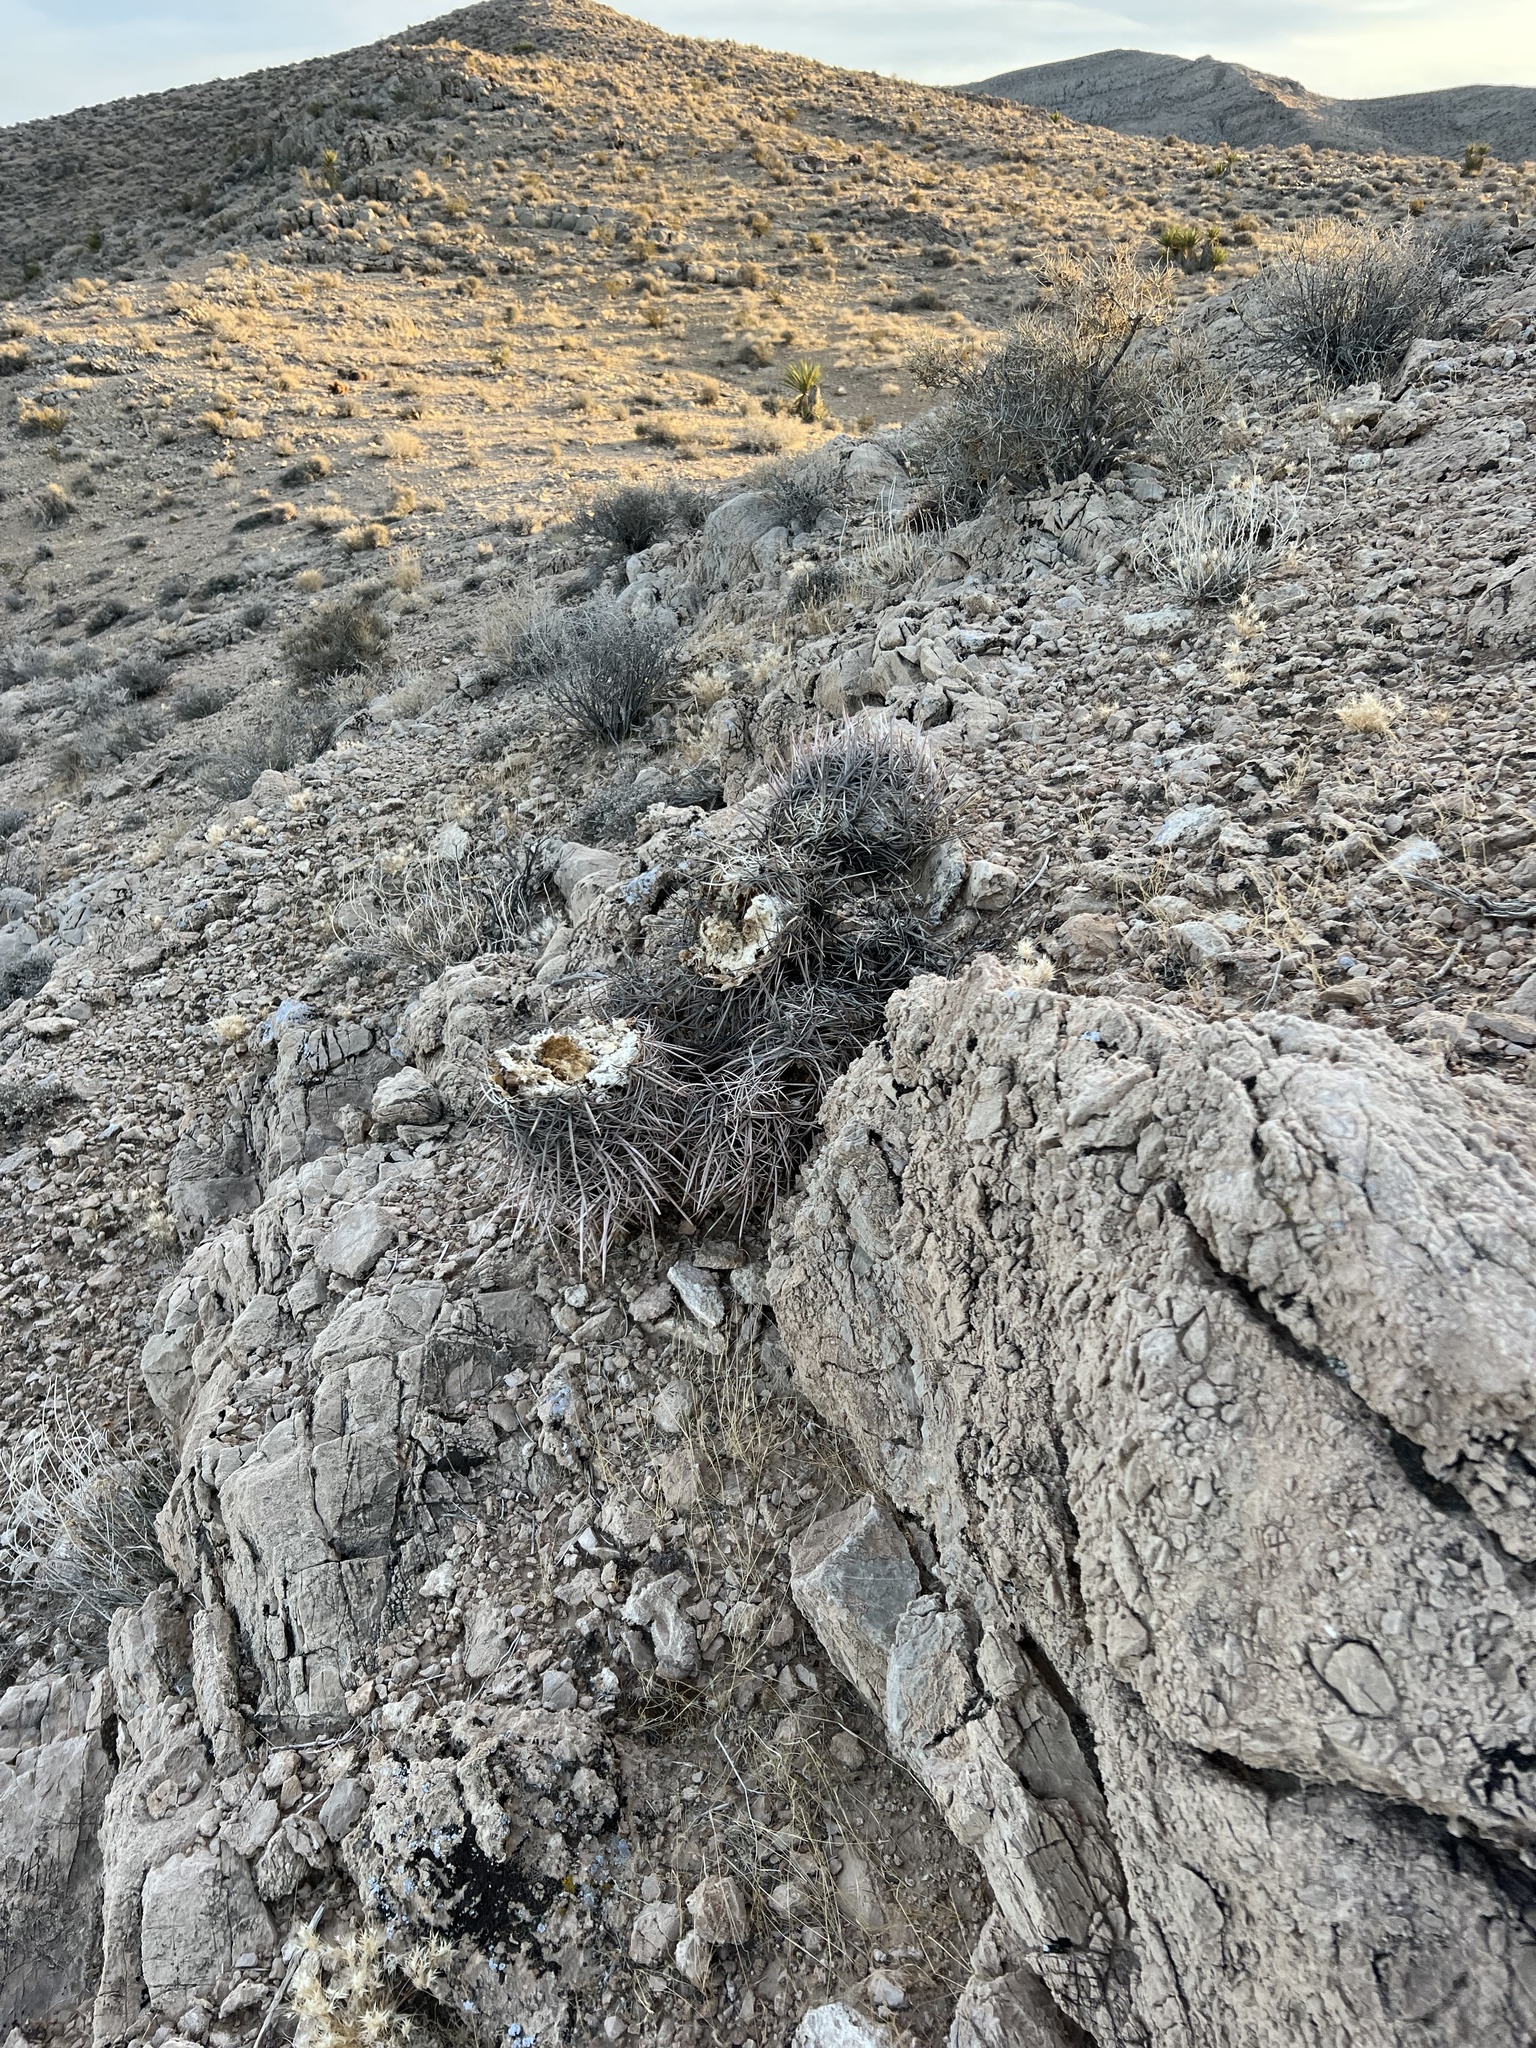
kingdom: Plantae
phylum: Tracheophyta
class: Magnoliopsida
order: Caryophyllales
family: Cactaceae
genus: Echinocactus
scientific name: Echinocactus polycephalus
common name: Cottontop cactus
